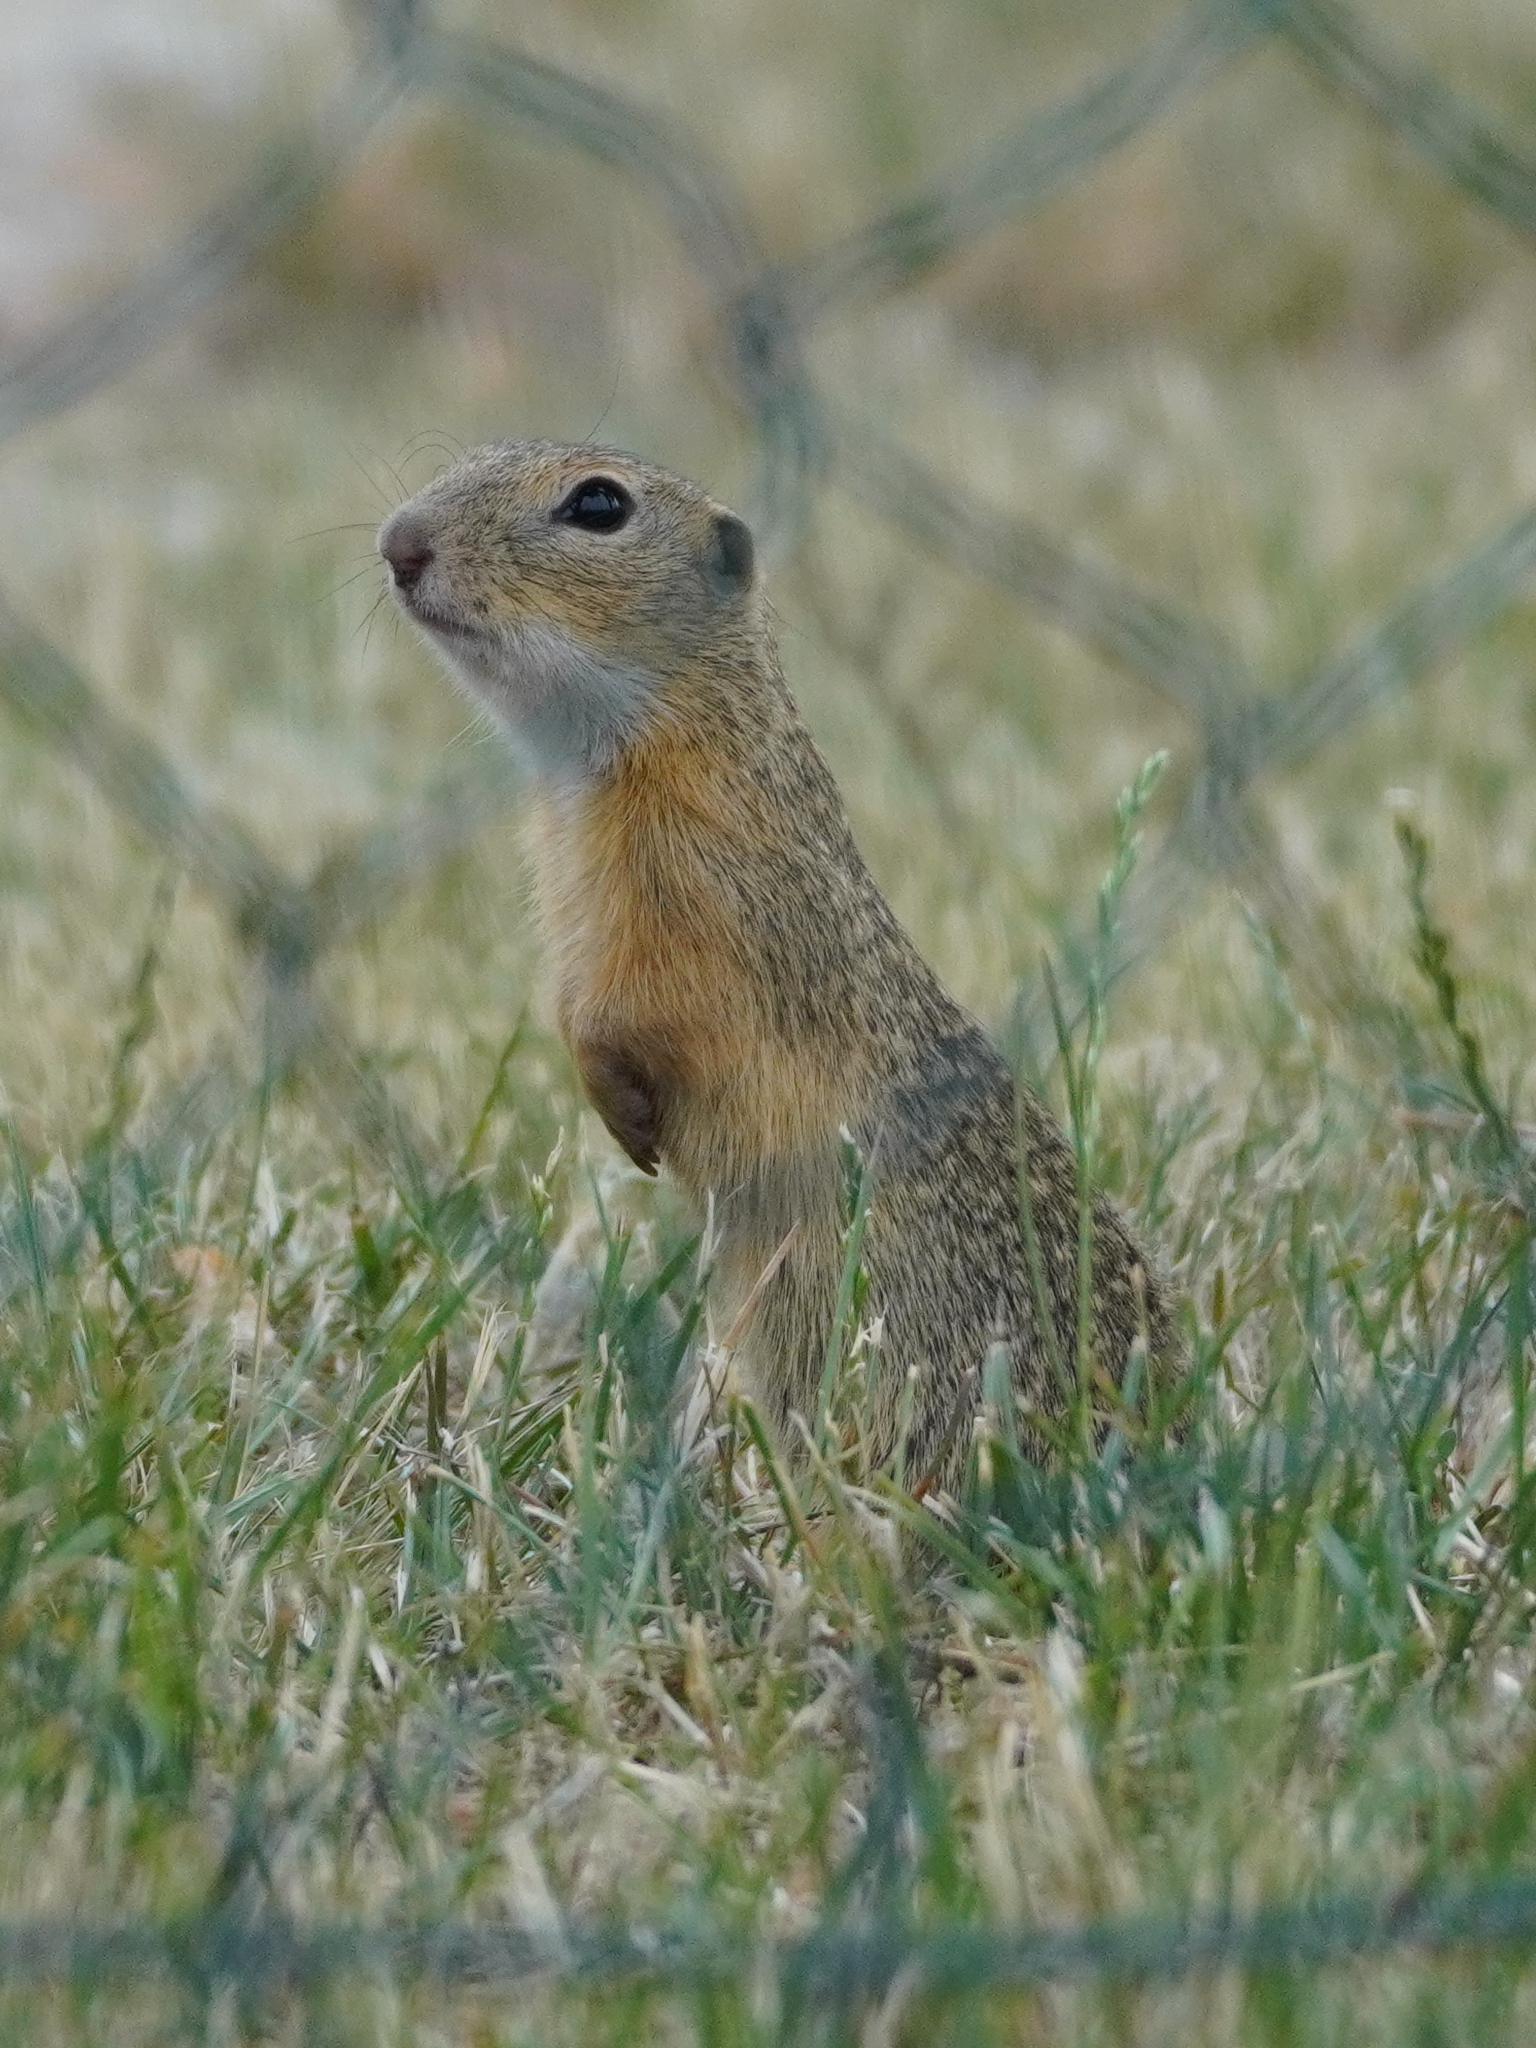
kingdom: Animalia
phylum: Chordata
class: Mammalia
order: Rodentia
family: Sciuridae
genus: Spermophilus
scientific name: Spermophilus citellus
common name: European ground squirrel
